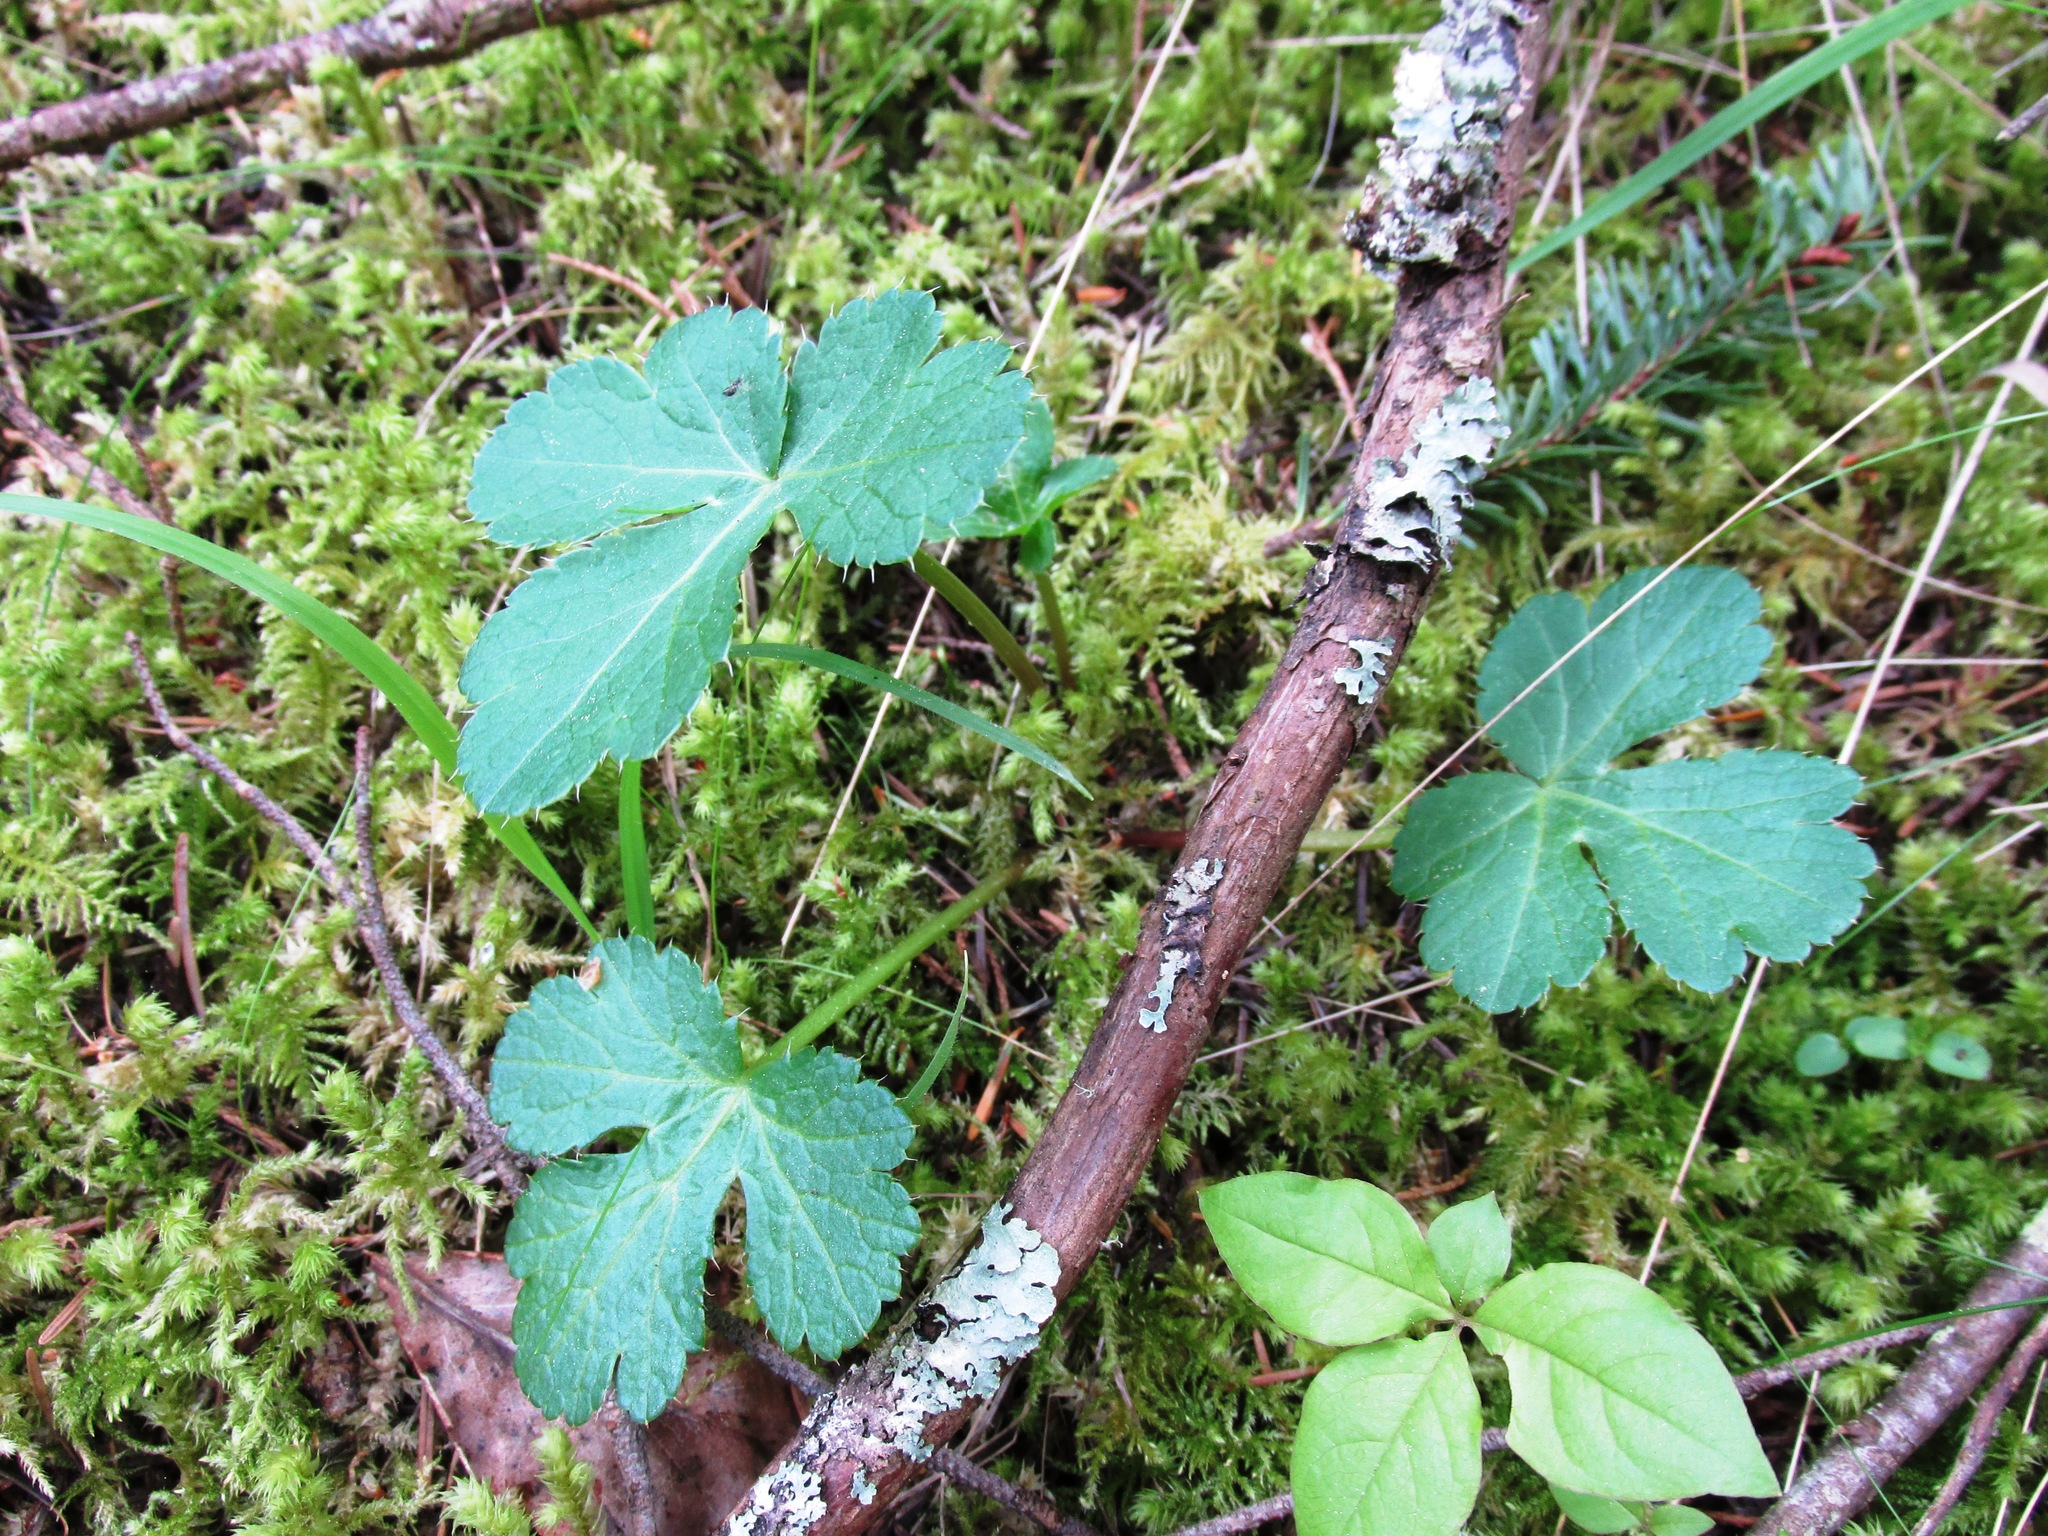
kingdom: Plantae
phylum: Tracheophyta
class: Magnoliopsida
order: Apiales
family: Apiaceae
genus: Sanicula
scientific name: Sanicula crassicaulis
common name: Western snakeroot
